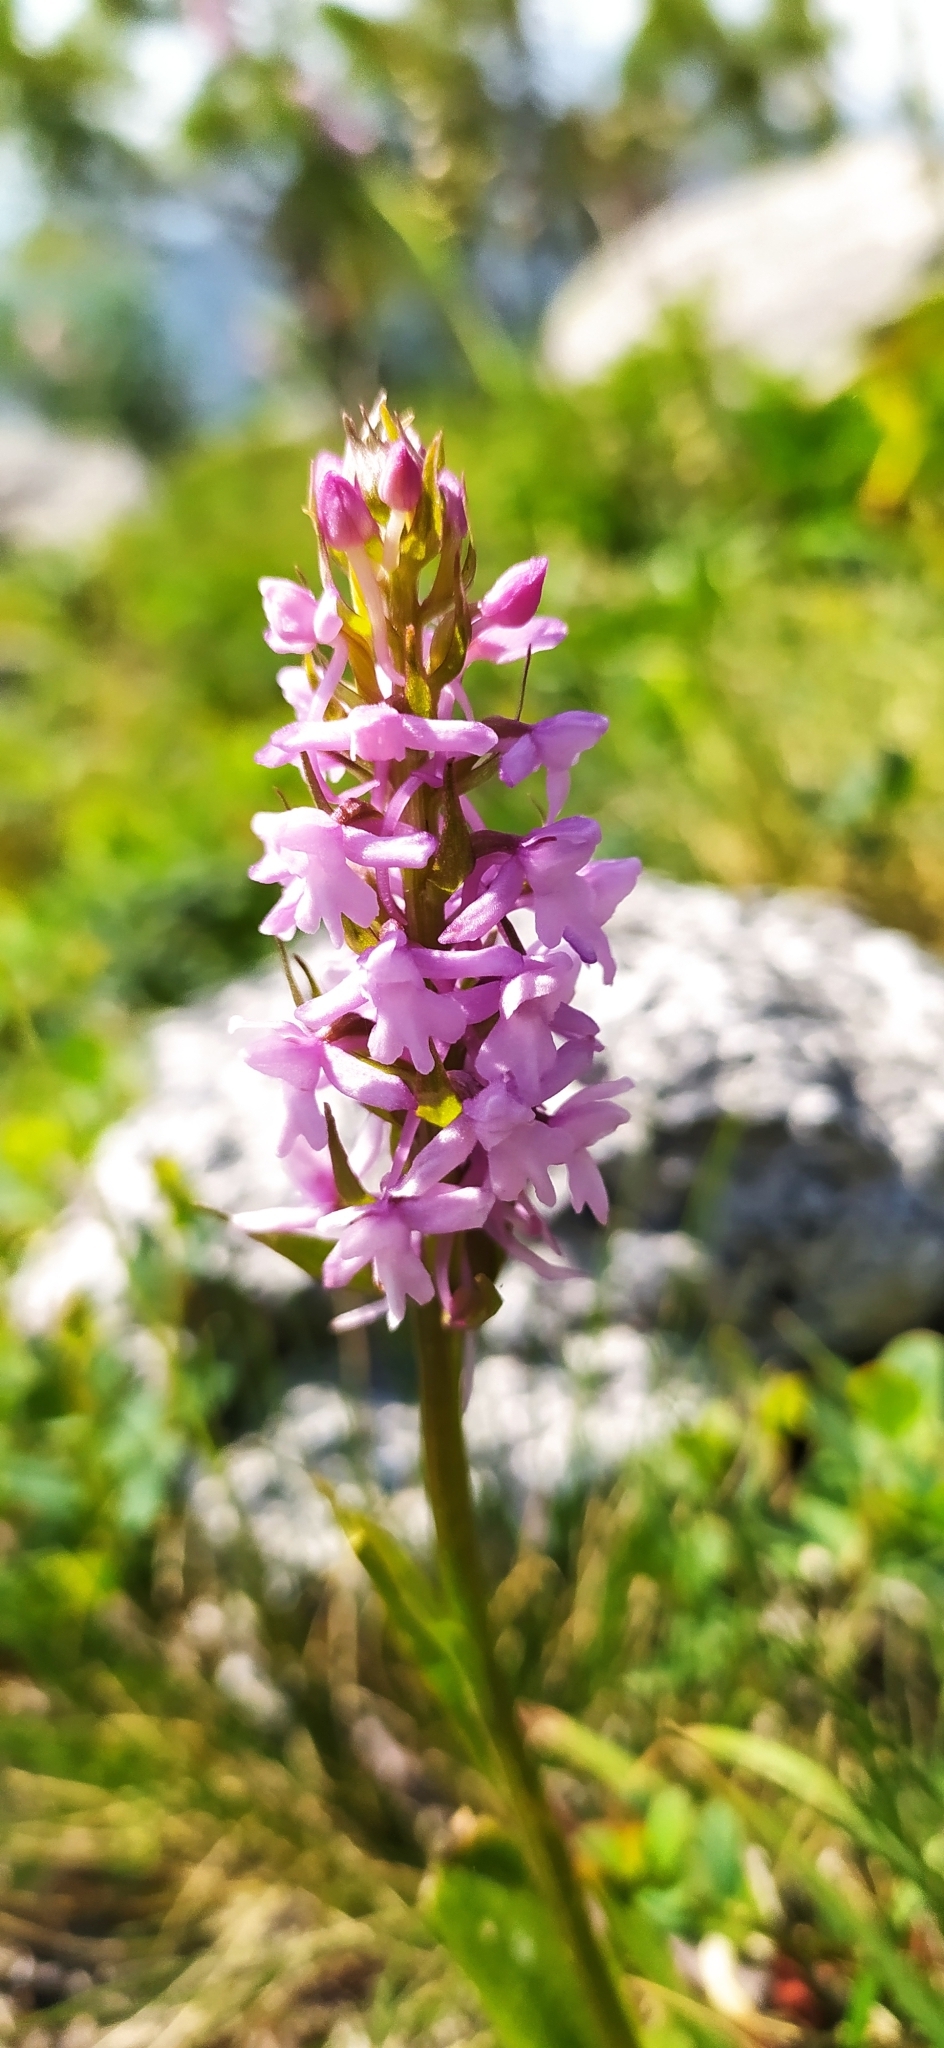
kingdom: Plantae
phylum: Tracheophyta
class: Liliopsida
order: Asparagales
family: Orchidaceae
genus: Gymnadenia
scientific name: Gymnadenia conopsea
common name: Fragrant orchid
